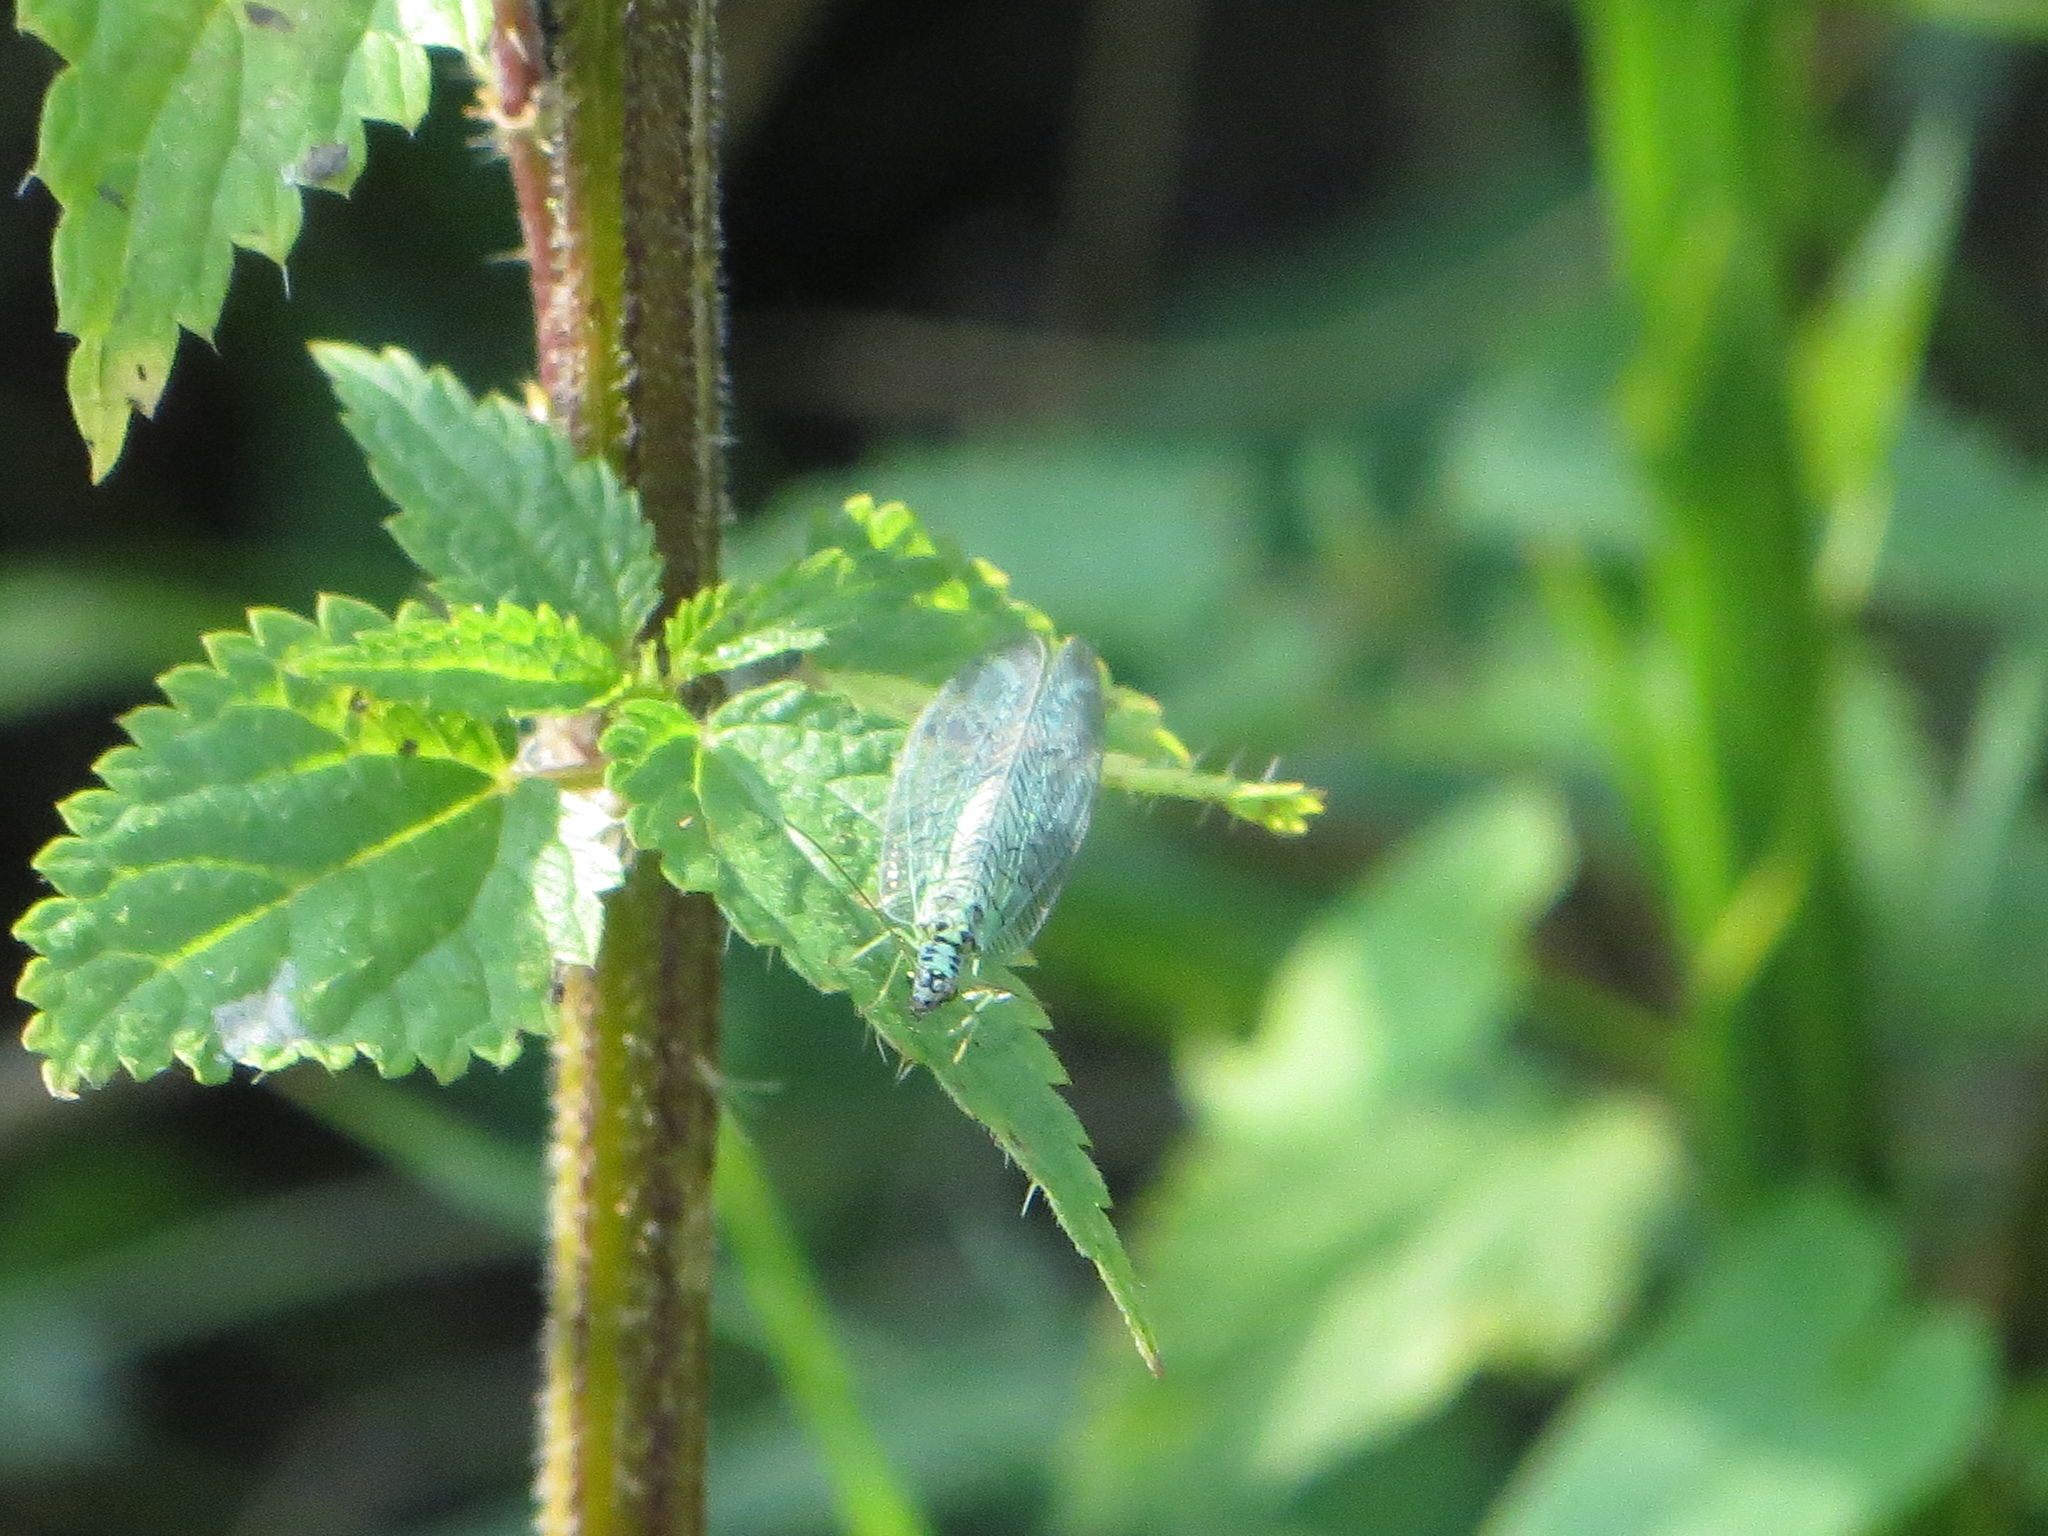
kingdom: Animalia
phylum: Arthropoda
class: Insecta
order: Neuroptera
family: Chrysopidae
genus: Chrysopa
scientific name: Chrysopa perla
